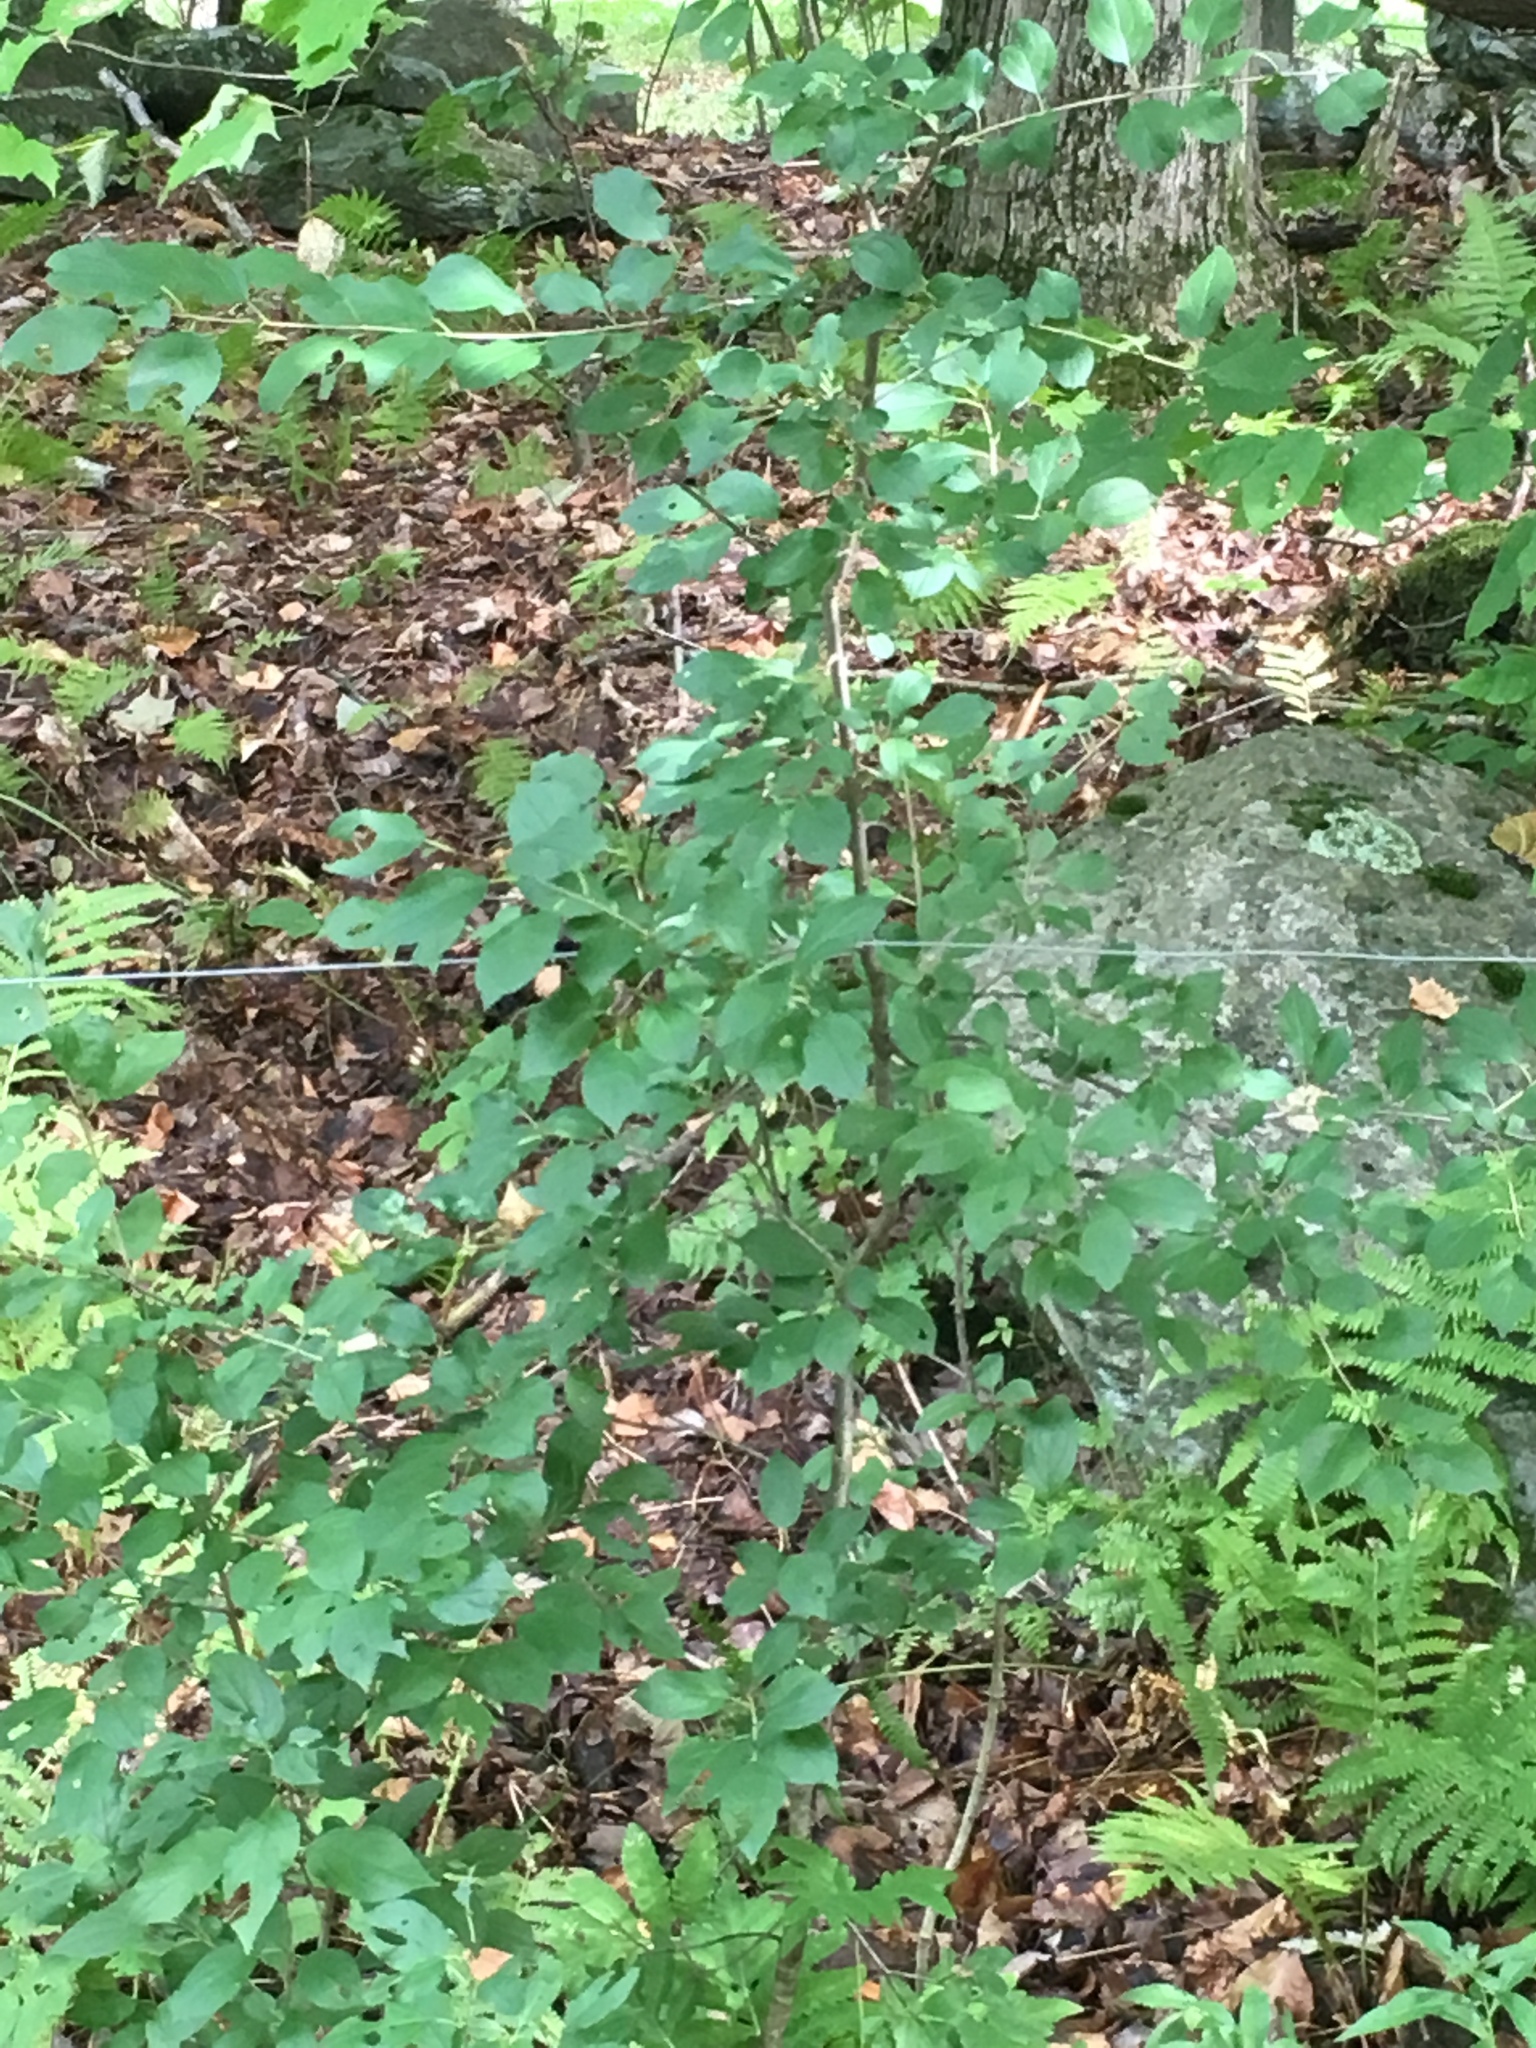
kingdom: Plantae
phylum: Tracheophyta
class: Magnoliopsida
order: Rosales
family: Rhamnaceae
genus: Rhamnus
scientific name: Rhamnus cathartica
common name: Common buckthorn
